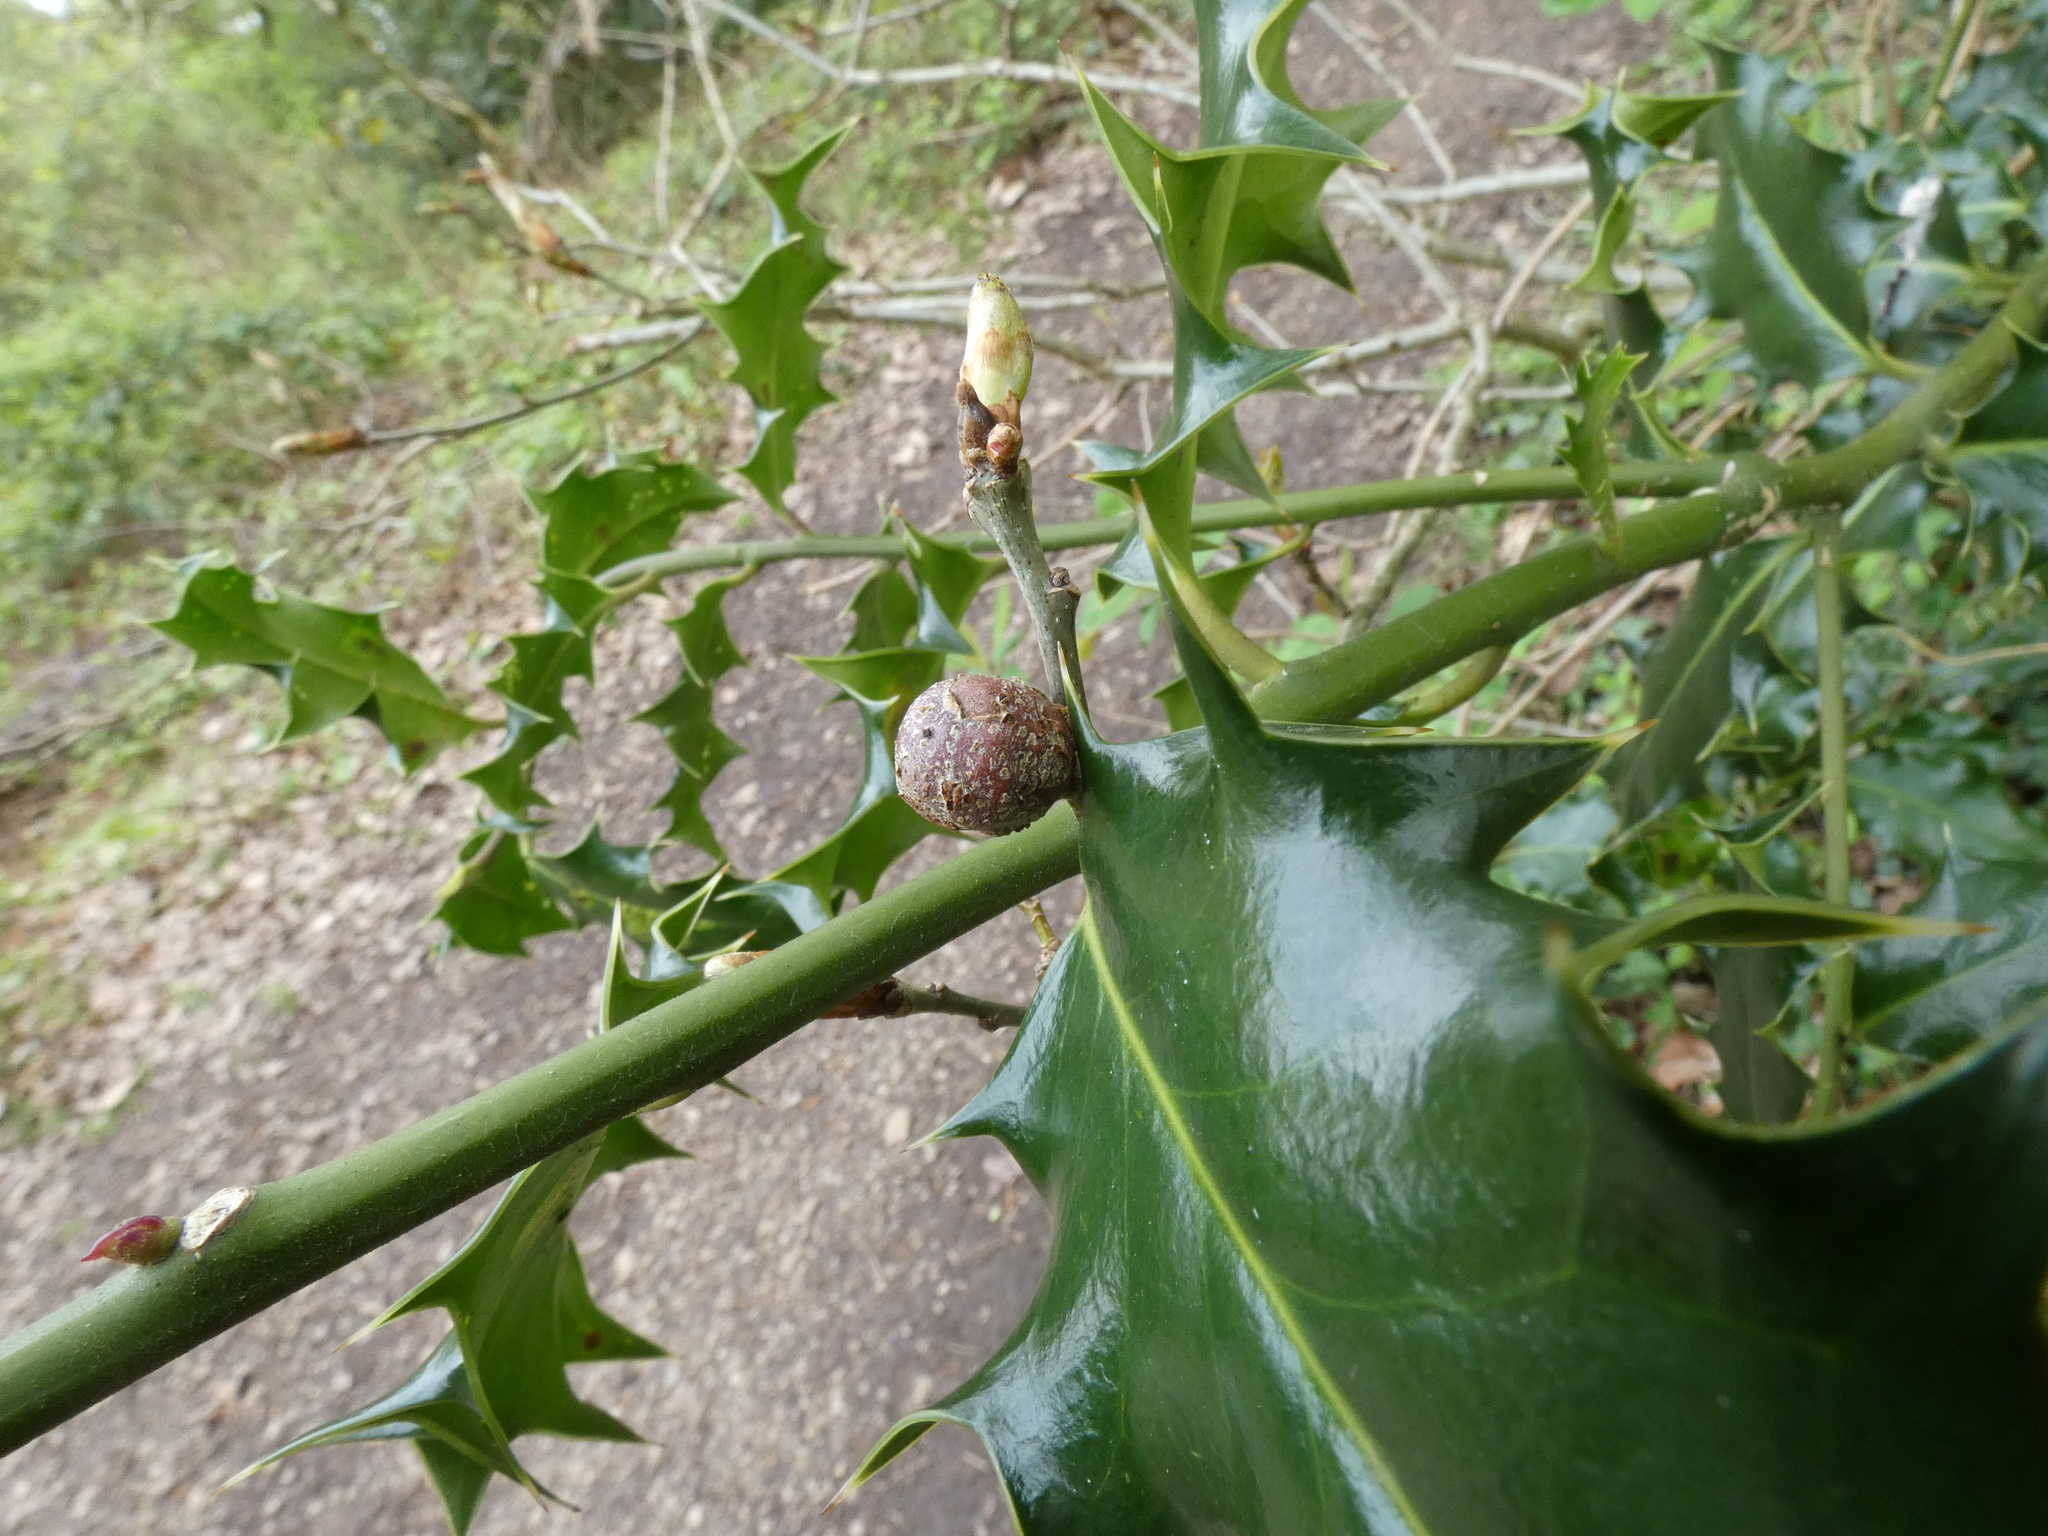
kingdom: Animalia
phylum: Arthropoda
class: Insecta
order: Hymenoptera
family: Cynipidae
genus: Andricus
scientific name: Andricus lignicolus
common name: Cola-nut gall
